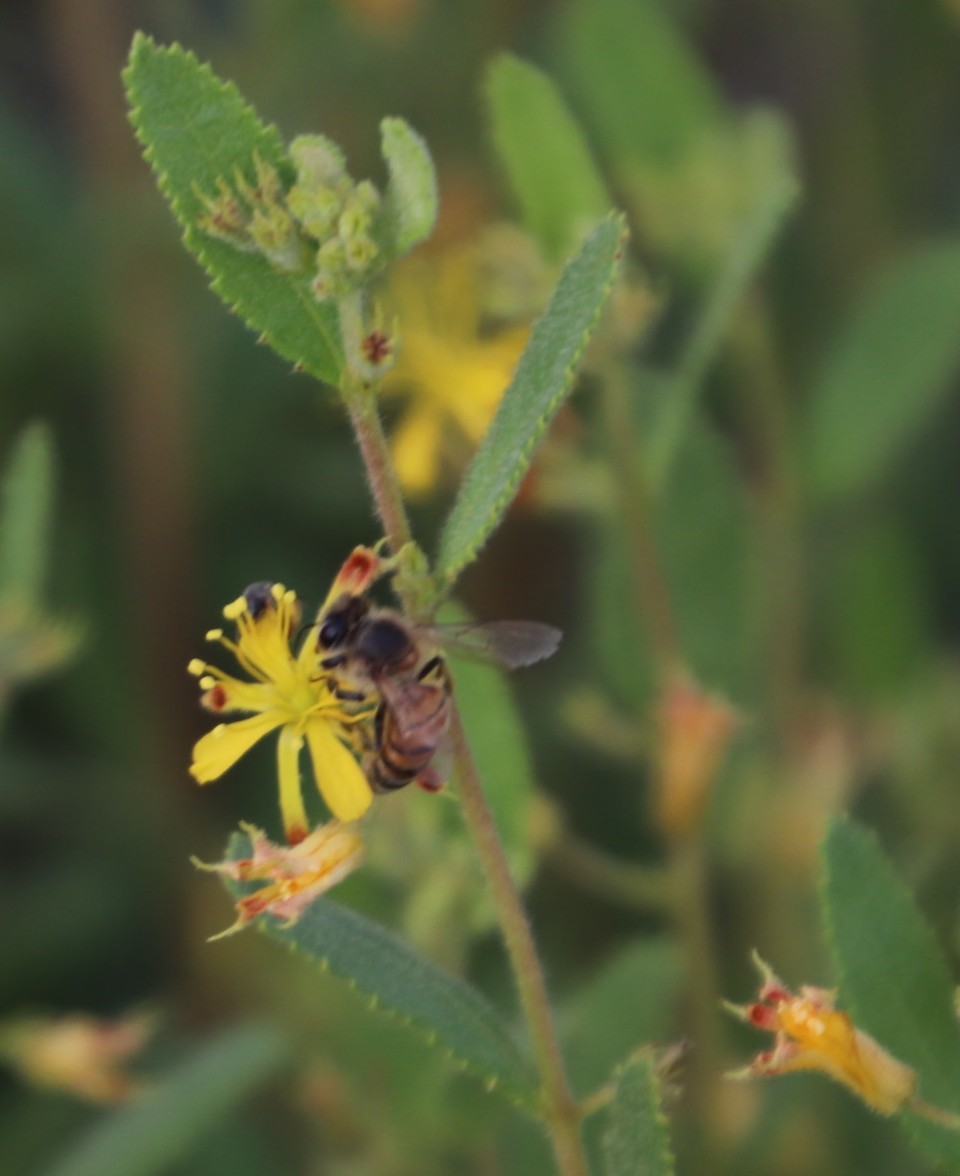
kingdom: Plantae
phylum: Tracheophyta
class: Magnoliopsida
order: Malvales
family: Malvaceae
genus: Triumfetta
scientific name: Triumfetta sonderi
